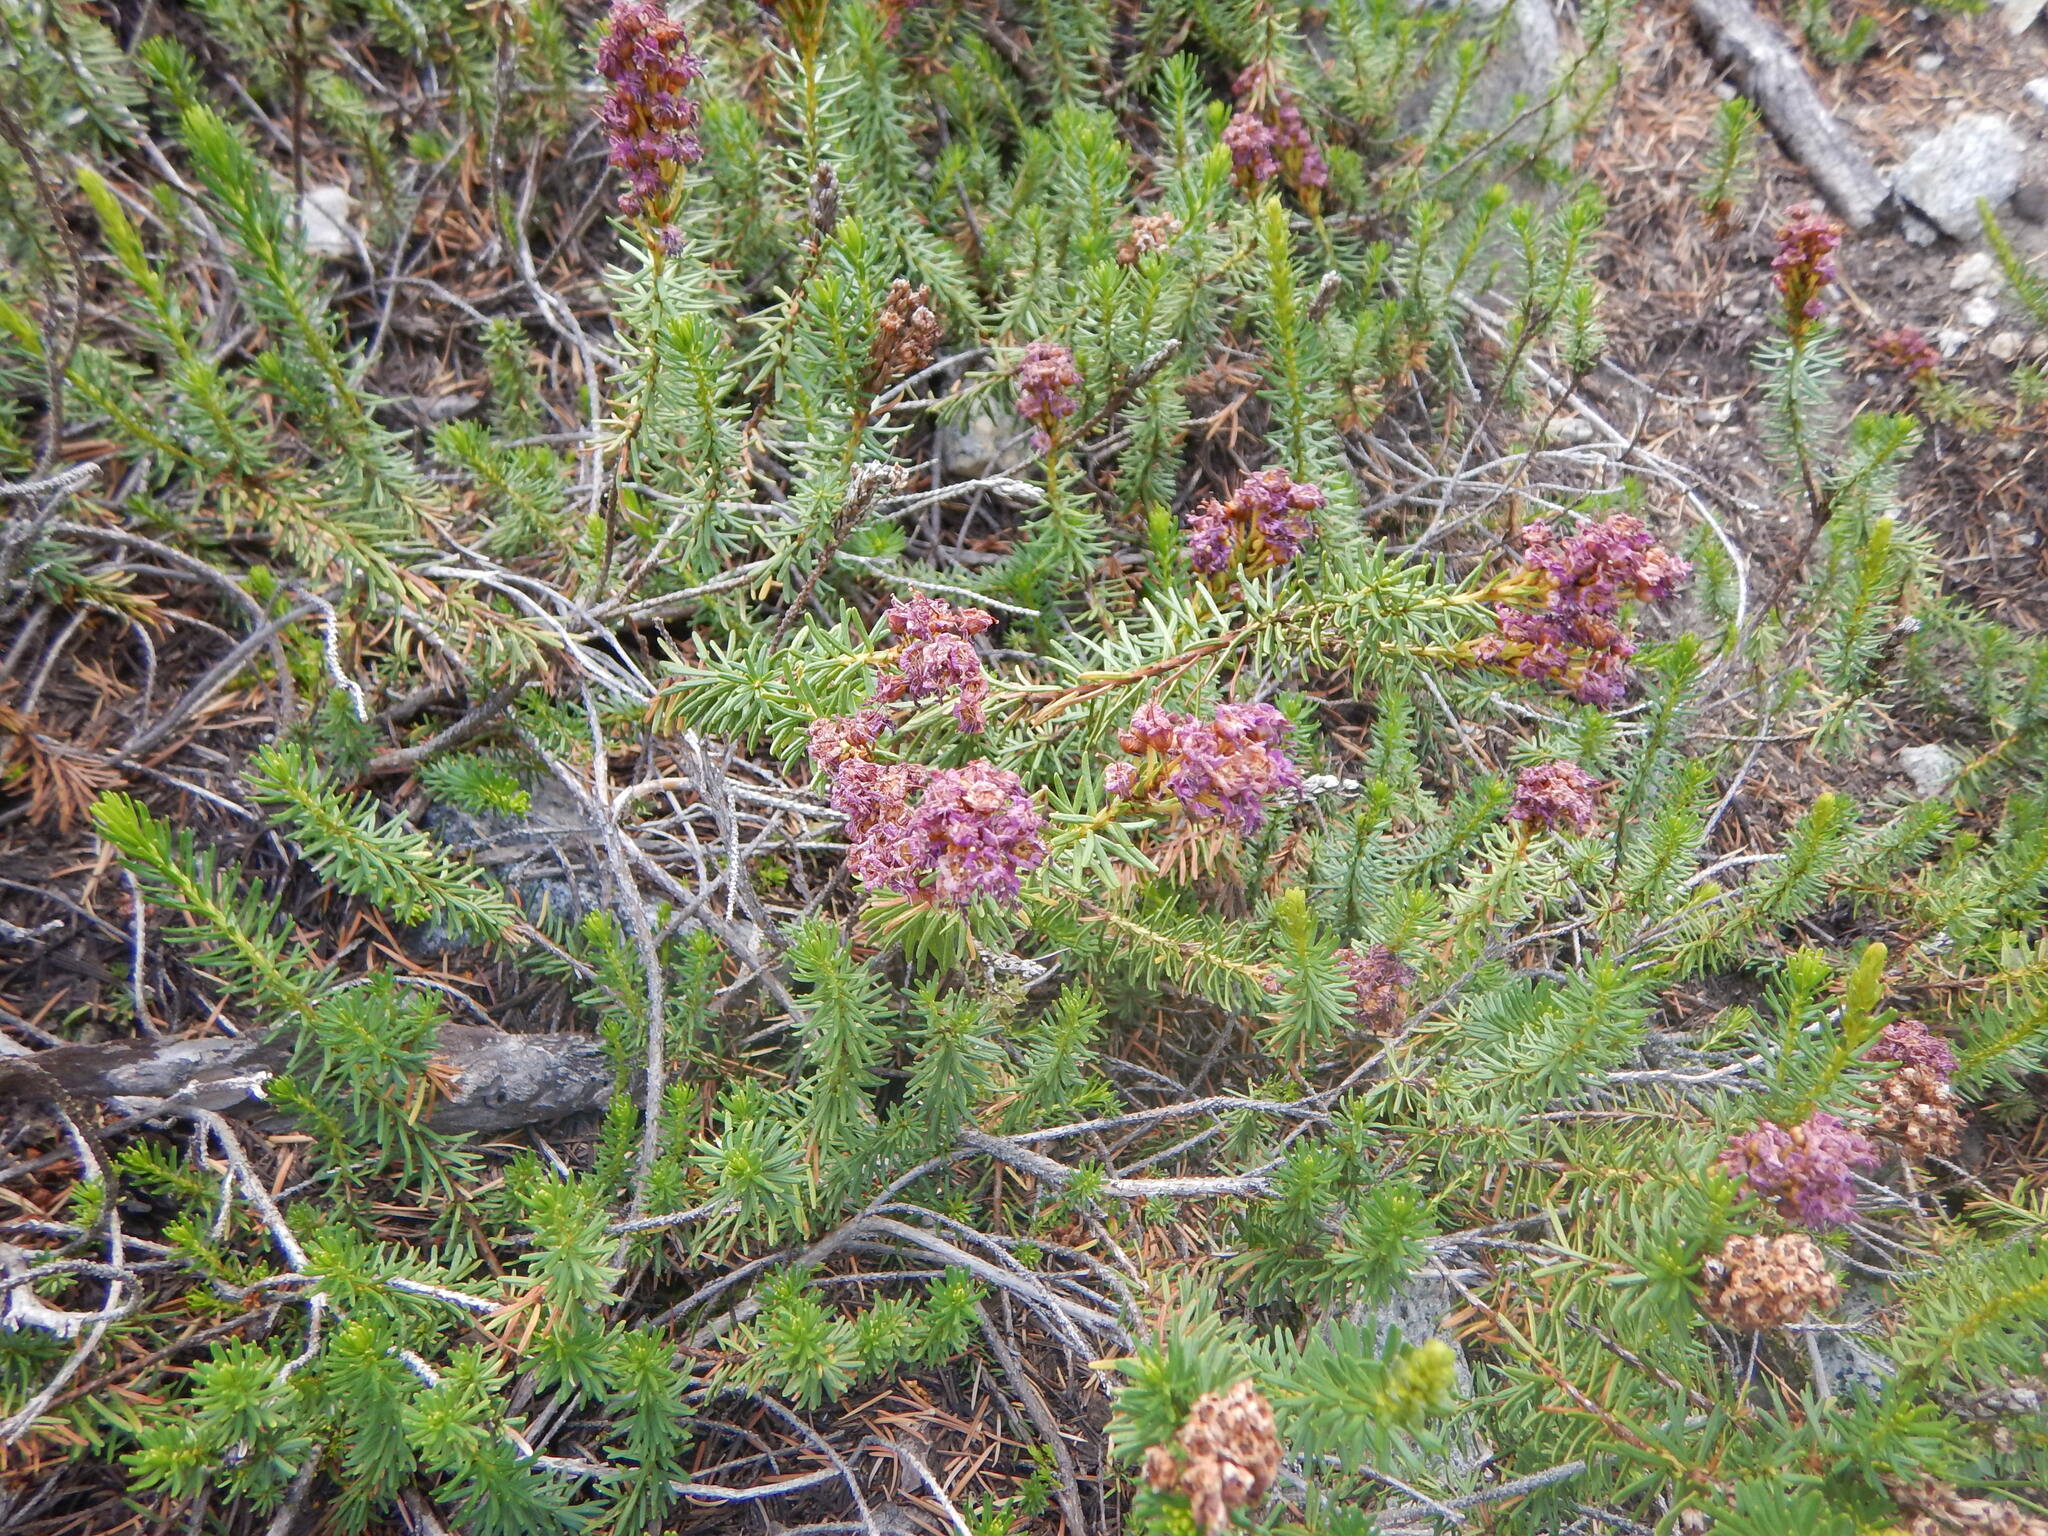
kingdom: Plantae
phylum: Tracheophyta
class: Magnoliopsida
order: Ericales
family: Ericaceae
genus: Phyllodoce
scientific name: Phyllodoce breweri
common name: Brewer's mountain-heather
